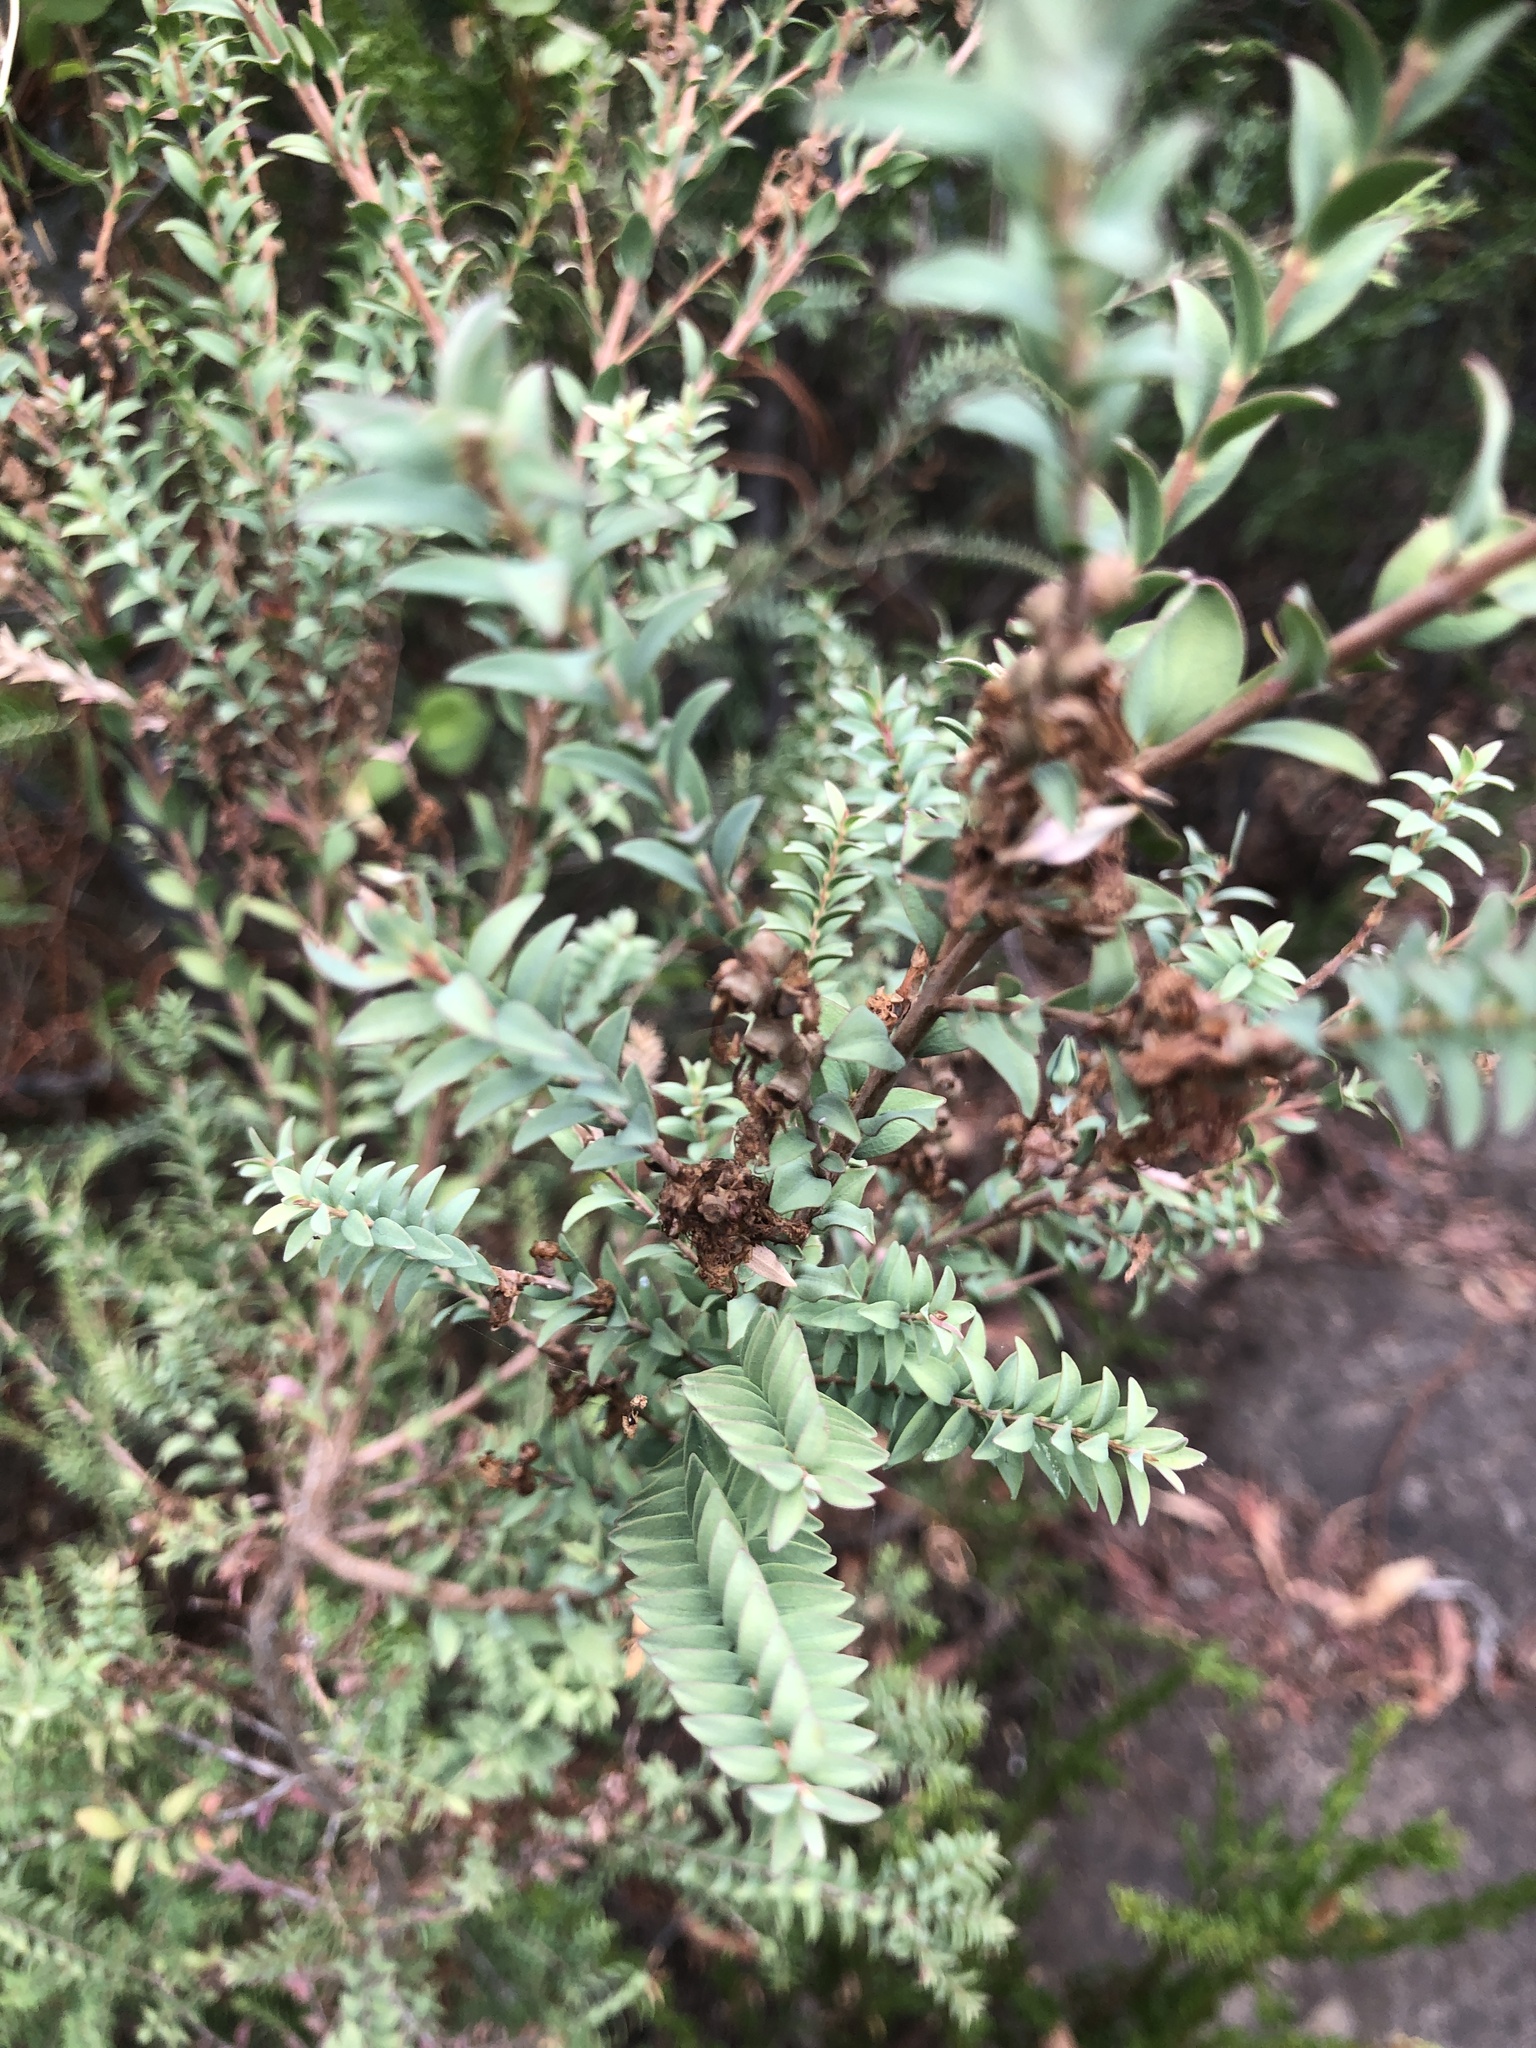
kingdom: Plantae
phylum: Tracheophyta
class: Magnoliopsida
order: Myrtales
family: Myrtaceae
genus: Melaleuca
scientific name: Melaleuca decussata
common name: Cross-leaf honey myrtle
